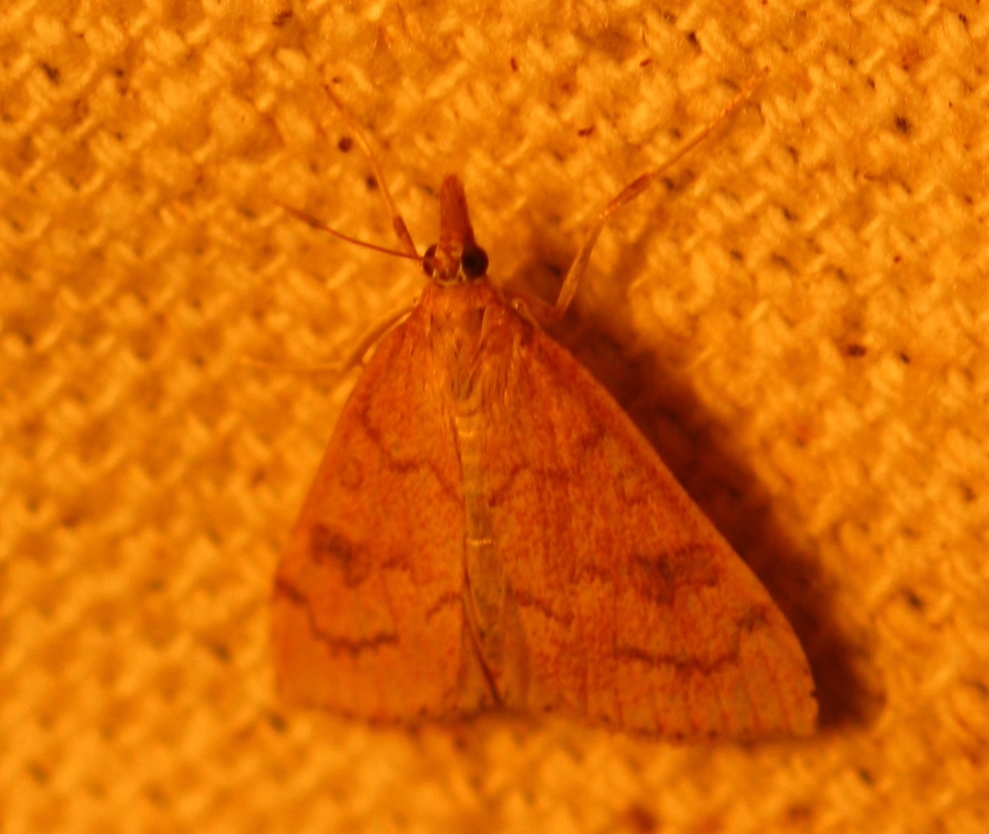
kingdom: Animalia
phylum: Arthropoda
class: Insecta
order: Lepidoptera
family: Crambidae
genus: Udea
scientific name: Udea rubigalis
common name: Celery leaftier moth
